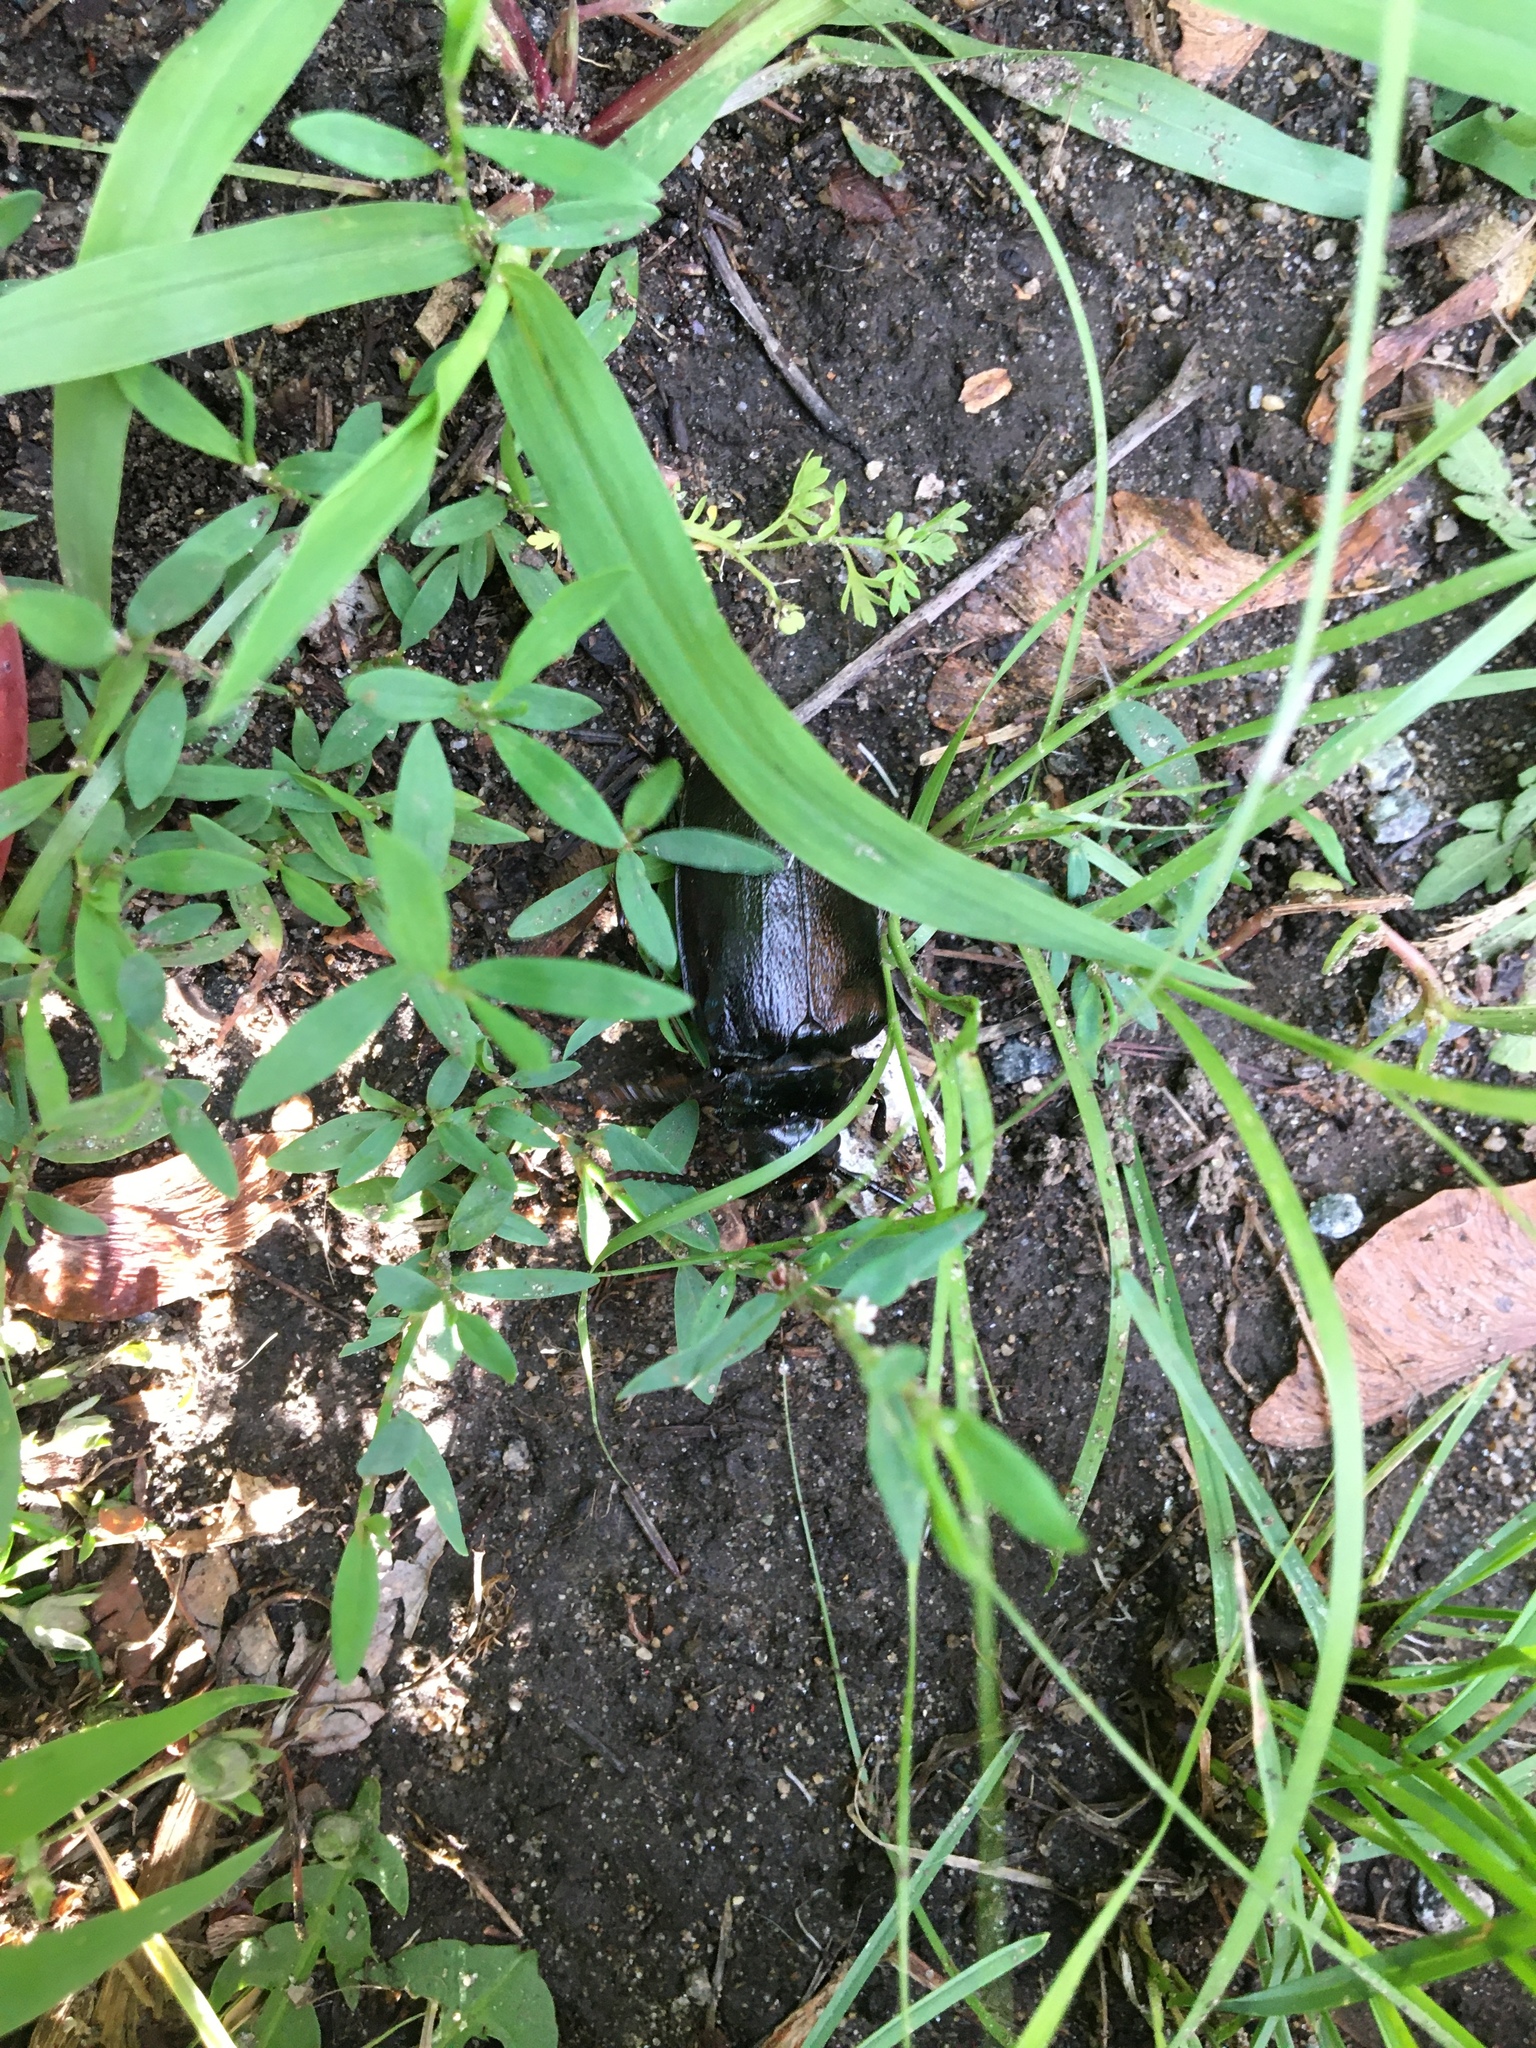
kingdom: Animalia
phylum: Arthropoda
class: Insecta
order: Coleoptera
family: Cerambycidae
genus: Prionus
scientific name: Prionus laticollis
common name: Broad necked prionus
